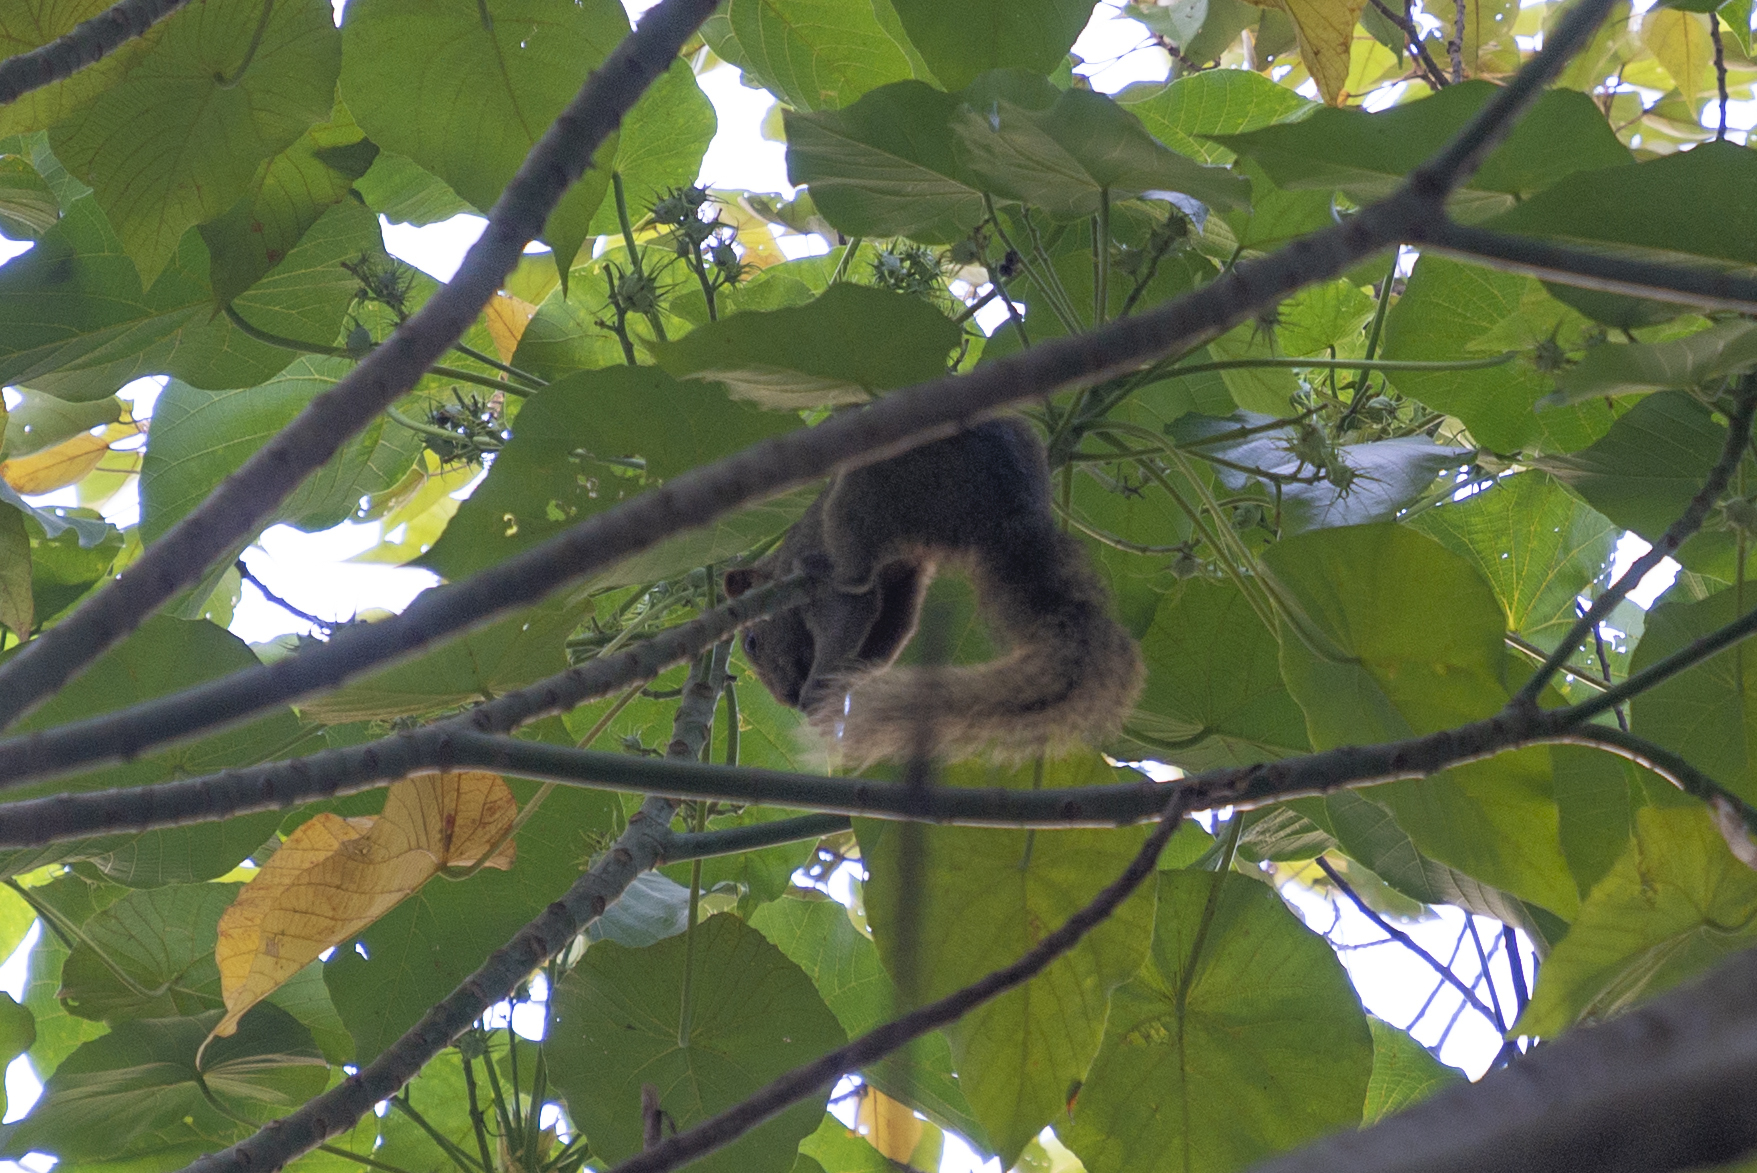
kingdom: Animalia
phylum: Chordata
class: Mammalia
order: Rodentia
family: Sciuridae
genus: Callosciurus
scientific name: Callosciurus erythraeus
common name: Pallas's squirrel
